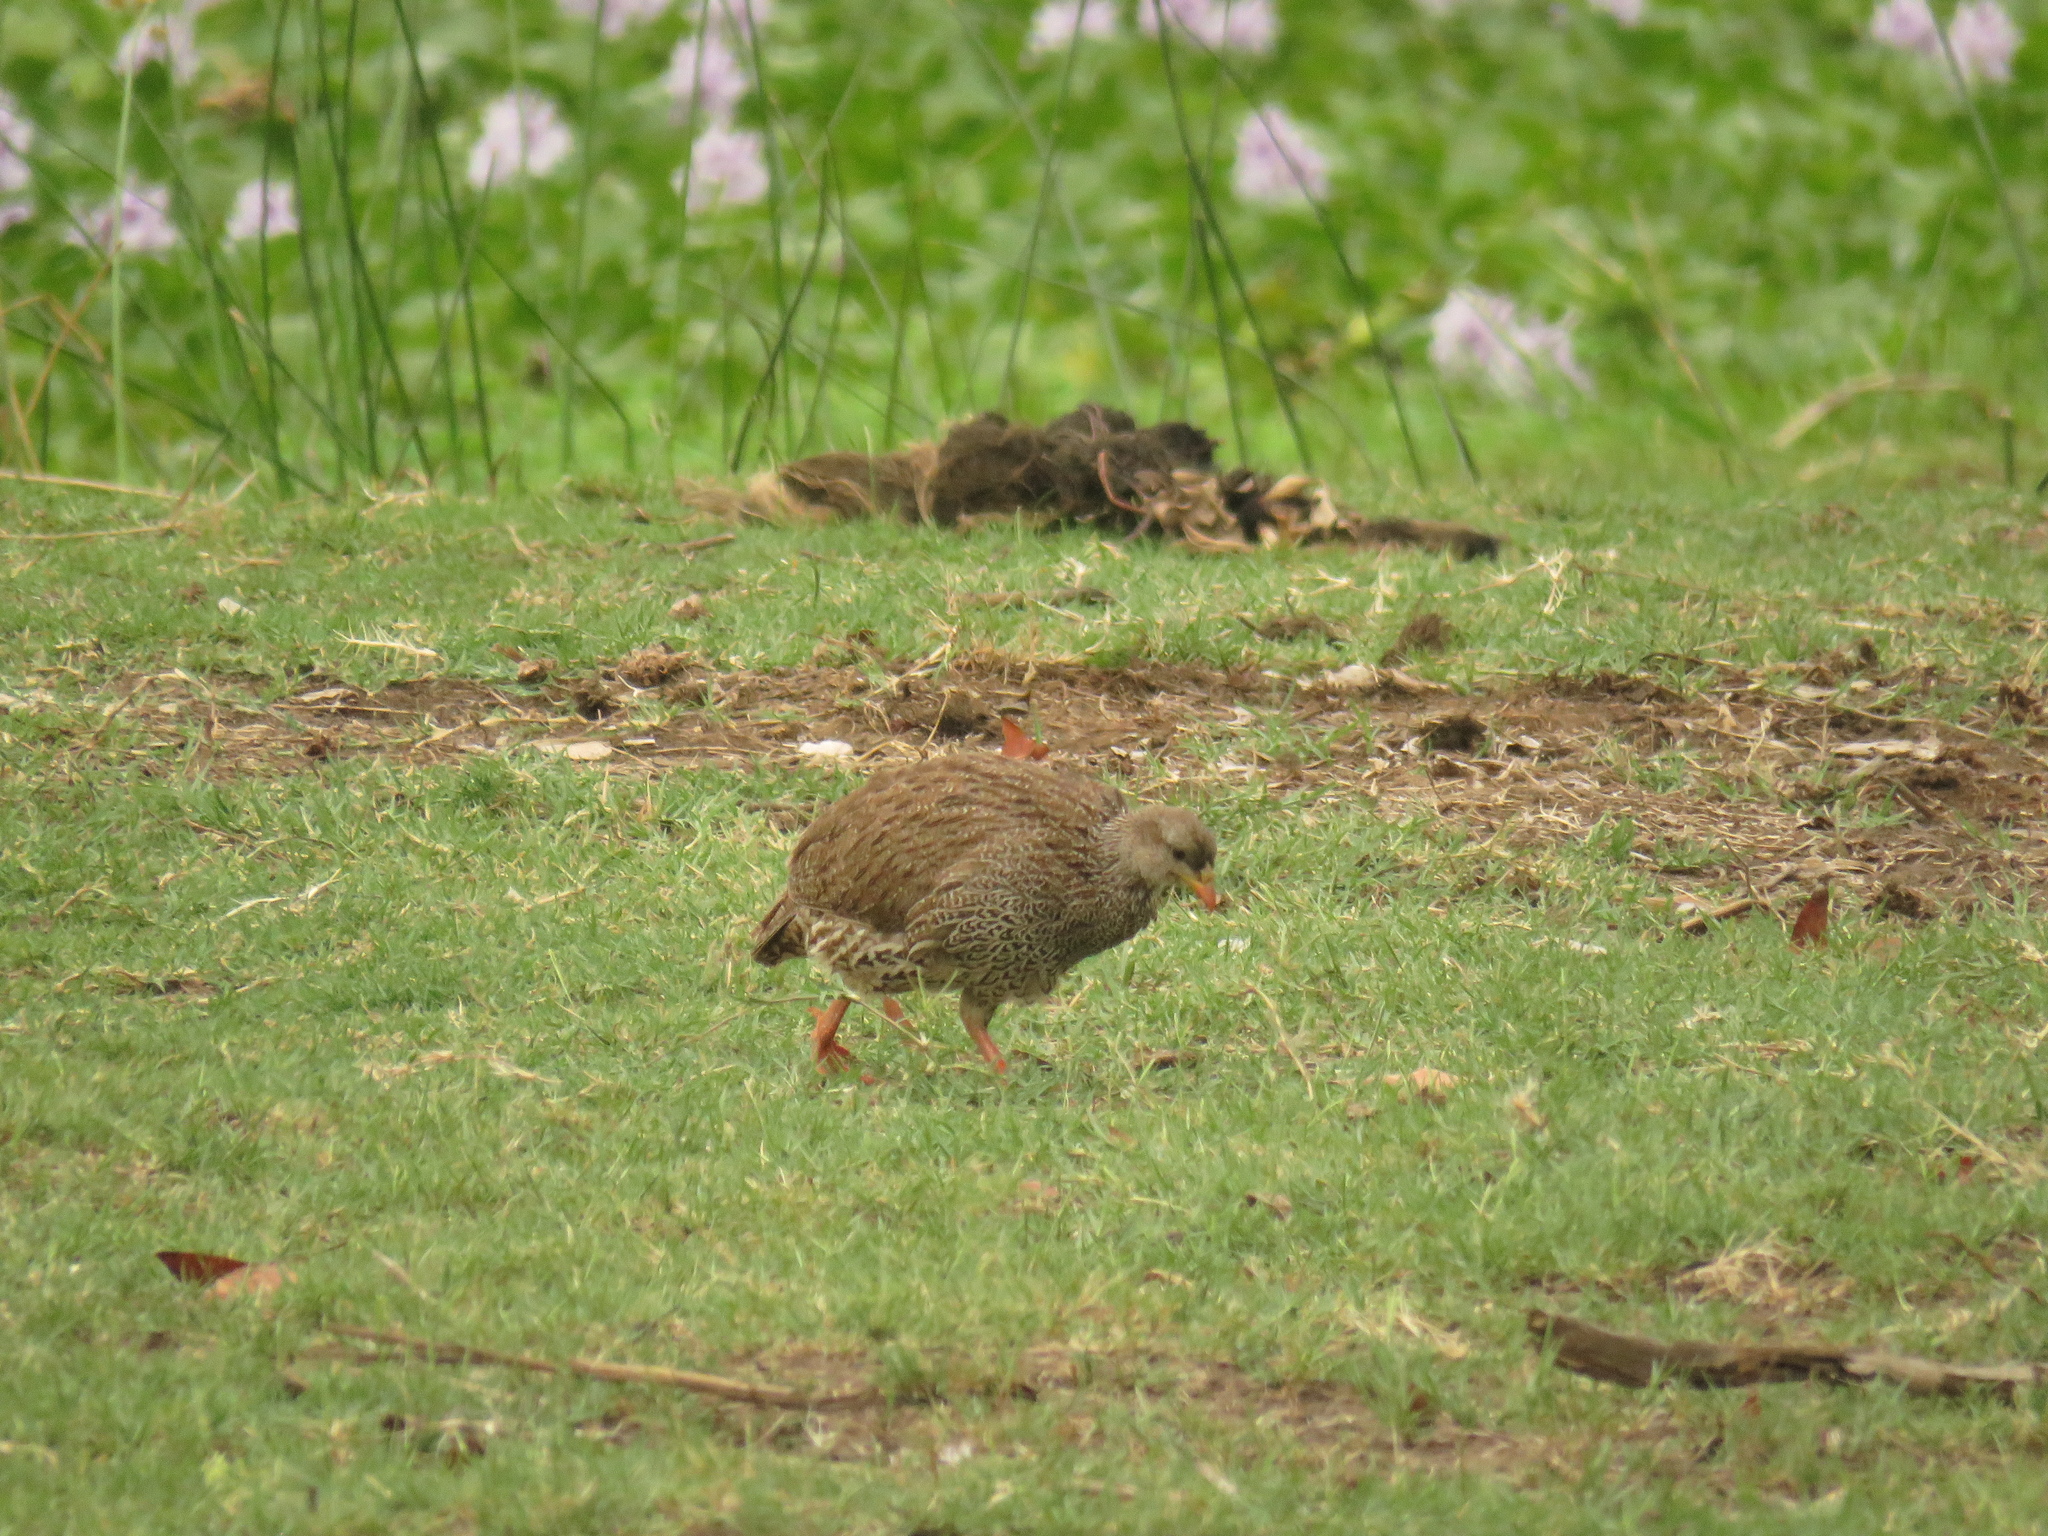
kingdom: Animalia
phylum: Chordata
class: Aves
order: Galliformes
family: Phasianidae
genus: Pternistis
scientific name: Pternistis natalensis
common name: Natal spurfowl
